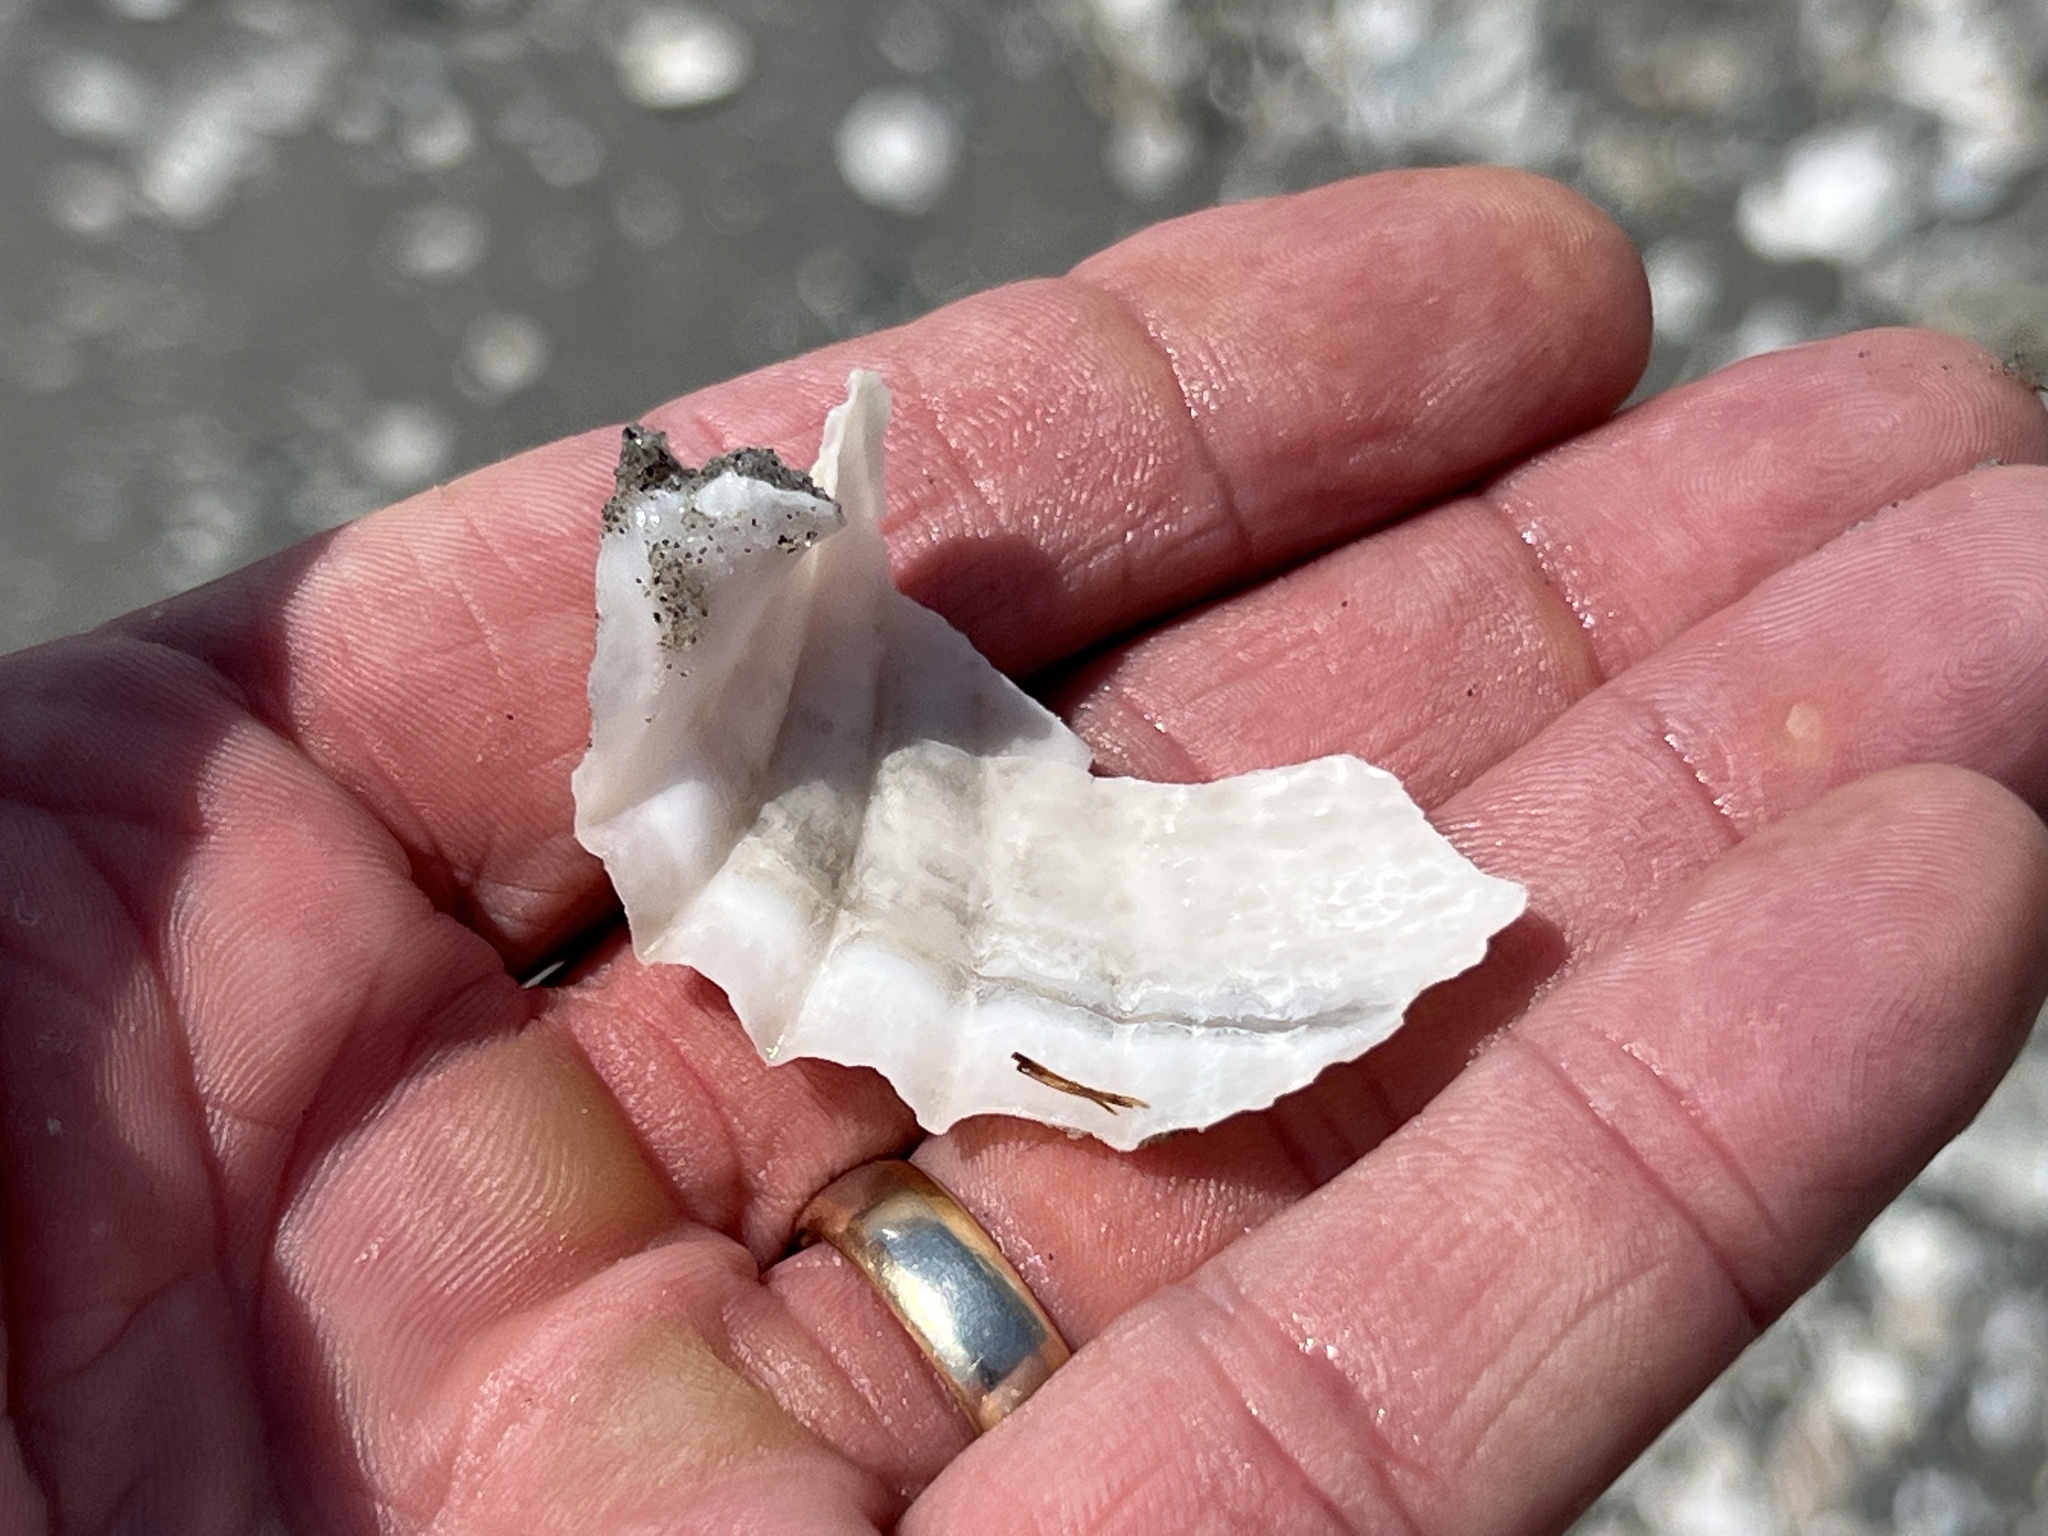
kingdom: Animalia
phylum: Mollusca
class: Bivalvia
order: Myida
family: Pholadidae
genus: Cyrtopleura
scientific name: Cyrtopleura costata
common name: Angel wing
